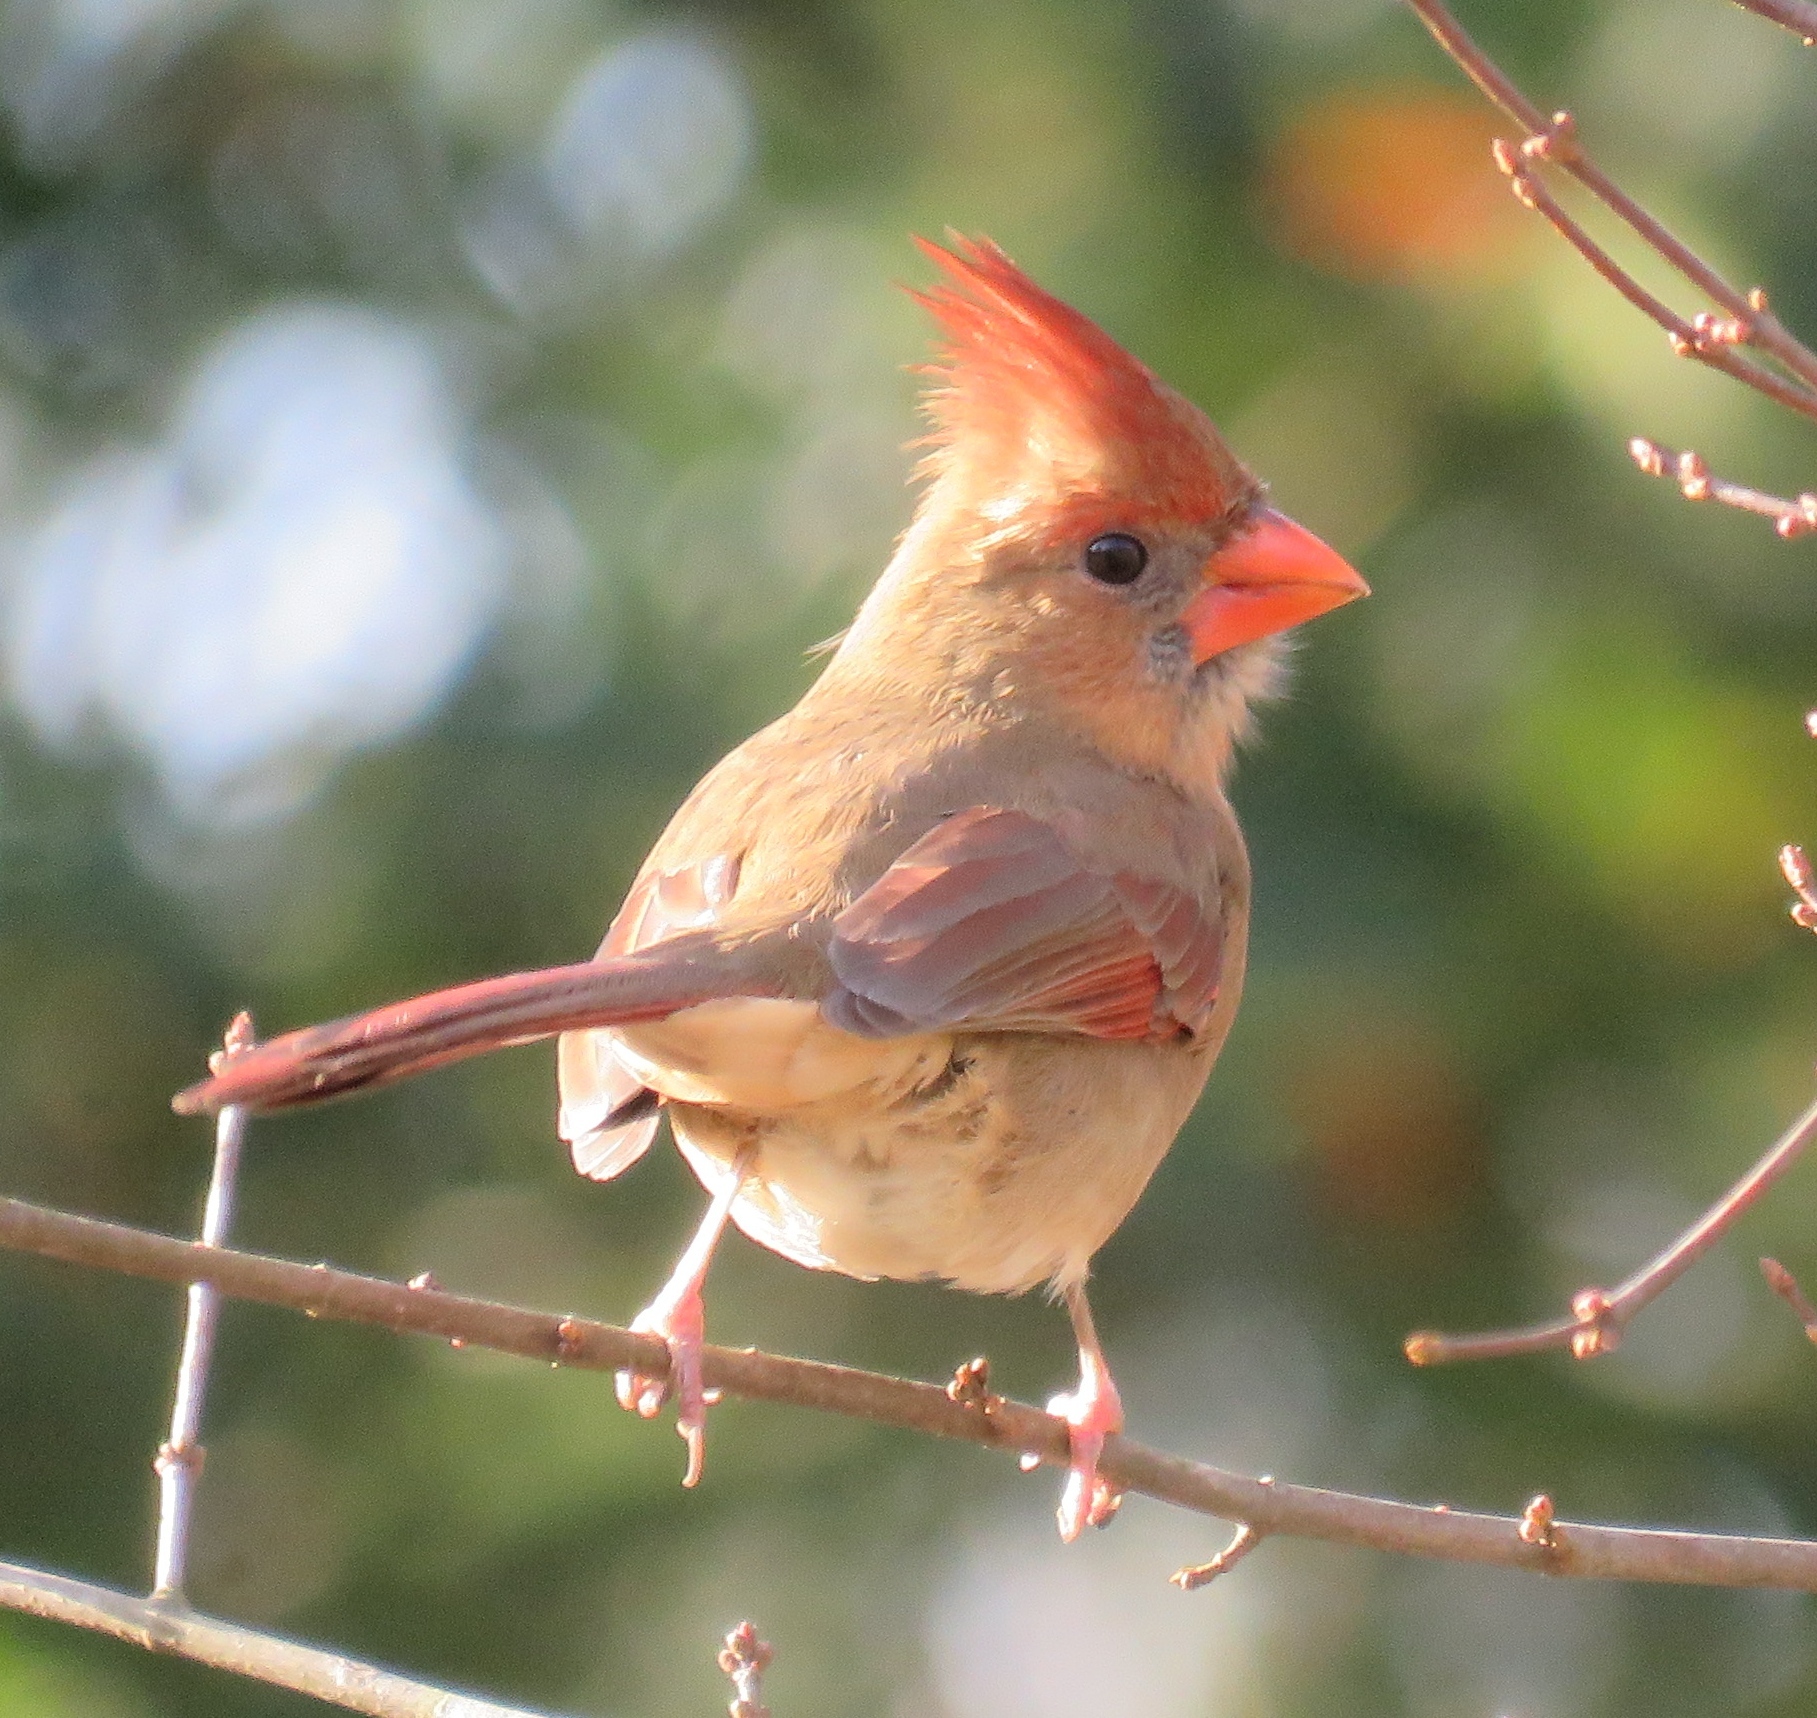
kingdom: Animalia
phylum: Chordata
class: Aves
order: Passeriformes
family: Cardinalidae
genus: Cardinalis
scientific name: Cardinalis cardinalis
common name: Northern cardinal
